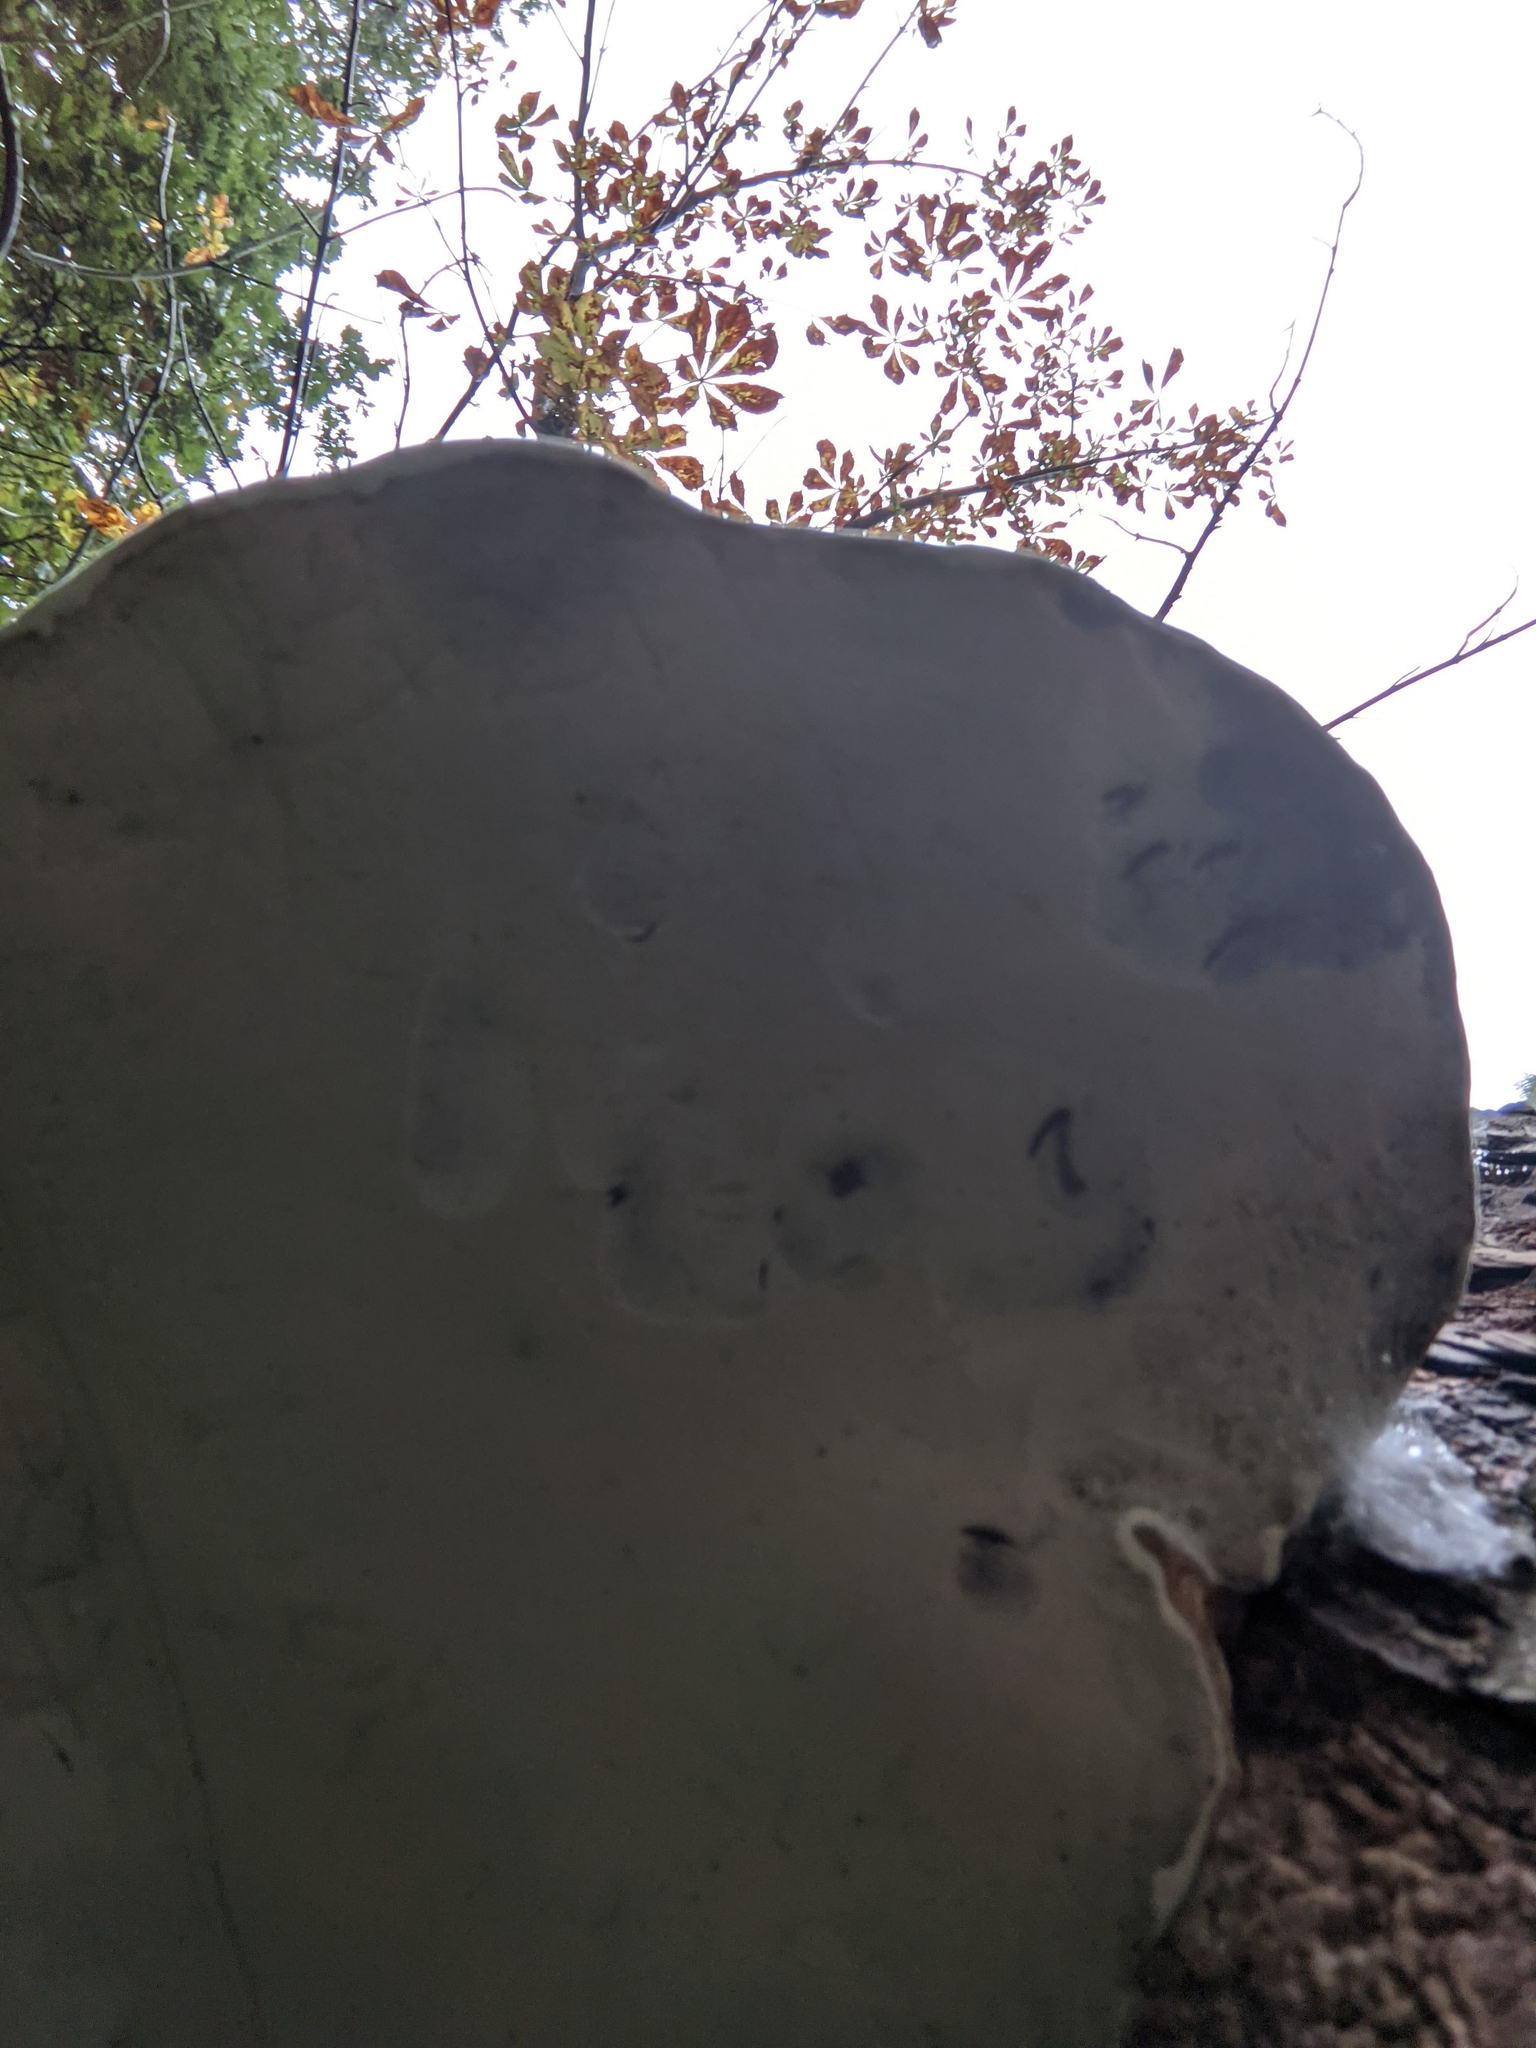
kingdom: Fungi
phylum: Basidiomycota
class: Agaricomycetes
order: Polyporales
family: Polyporaceae
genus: Fomes
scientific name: Fomes fomentarius
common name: Hoof fungus
